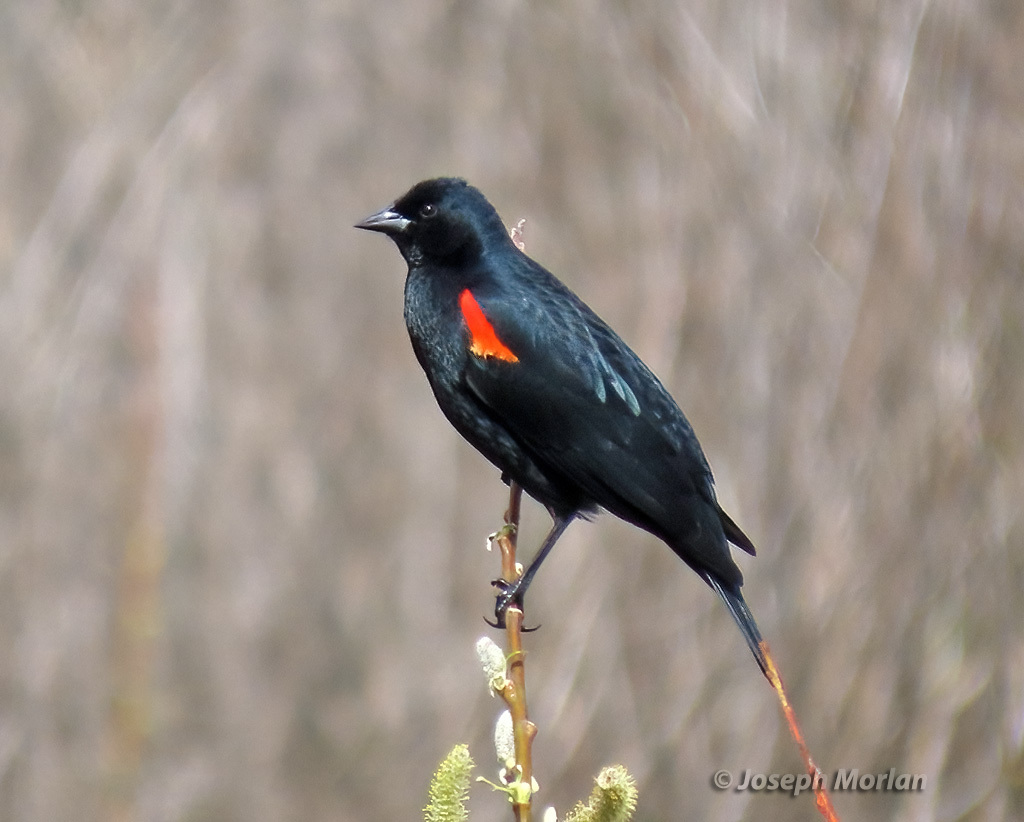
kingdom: Animalia
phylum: Chordata
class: Aves
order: Passeriformes
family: Icteridae
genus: Agelaius
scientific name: Agelaius phoeniceus
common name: Red-winged blackbird
